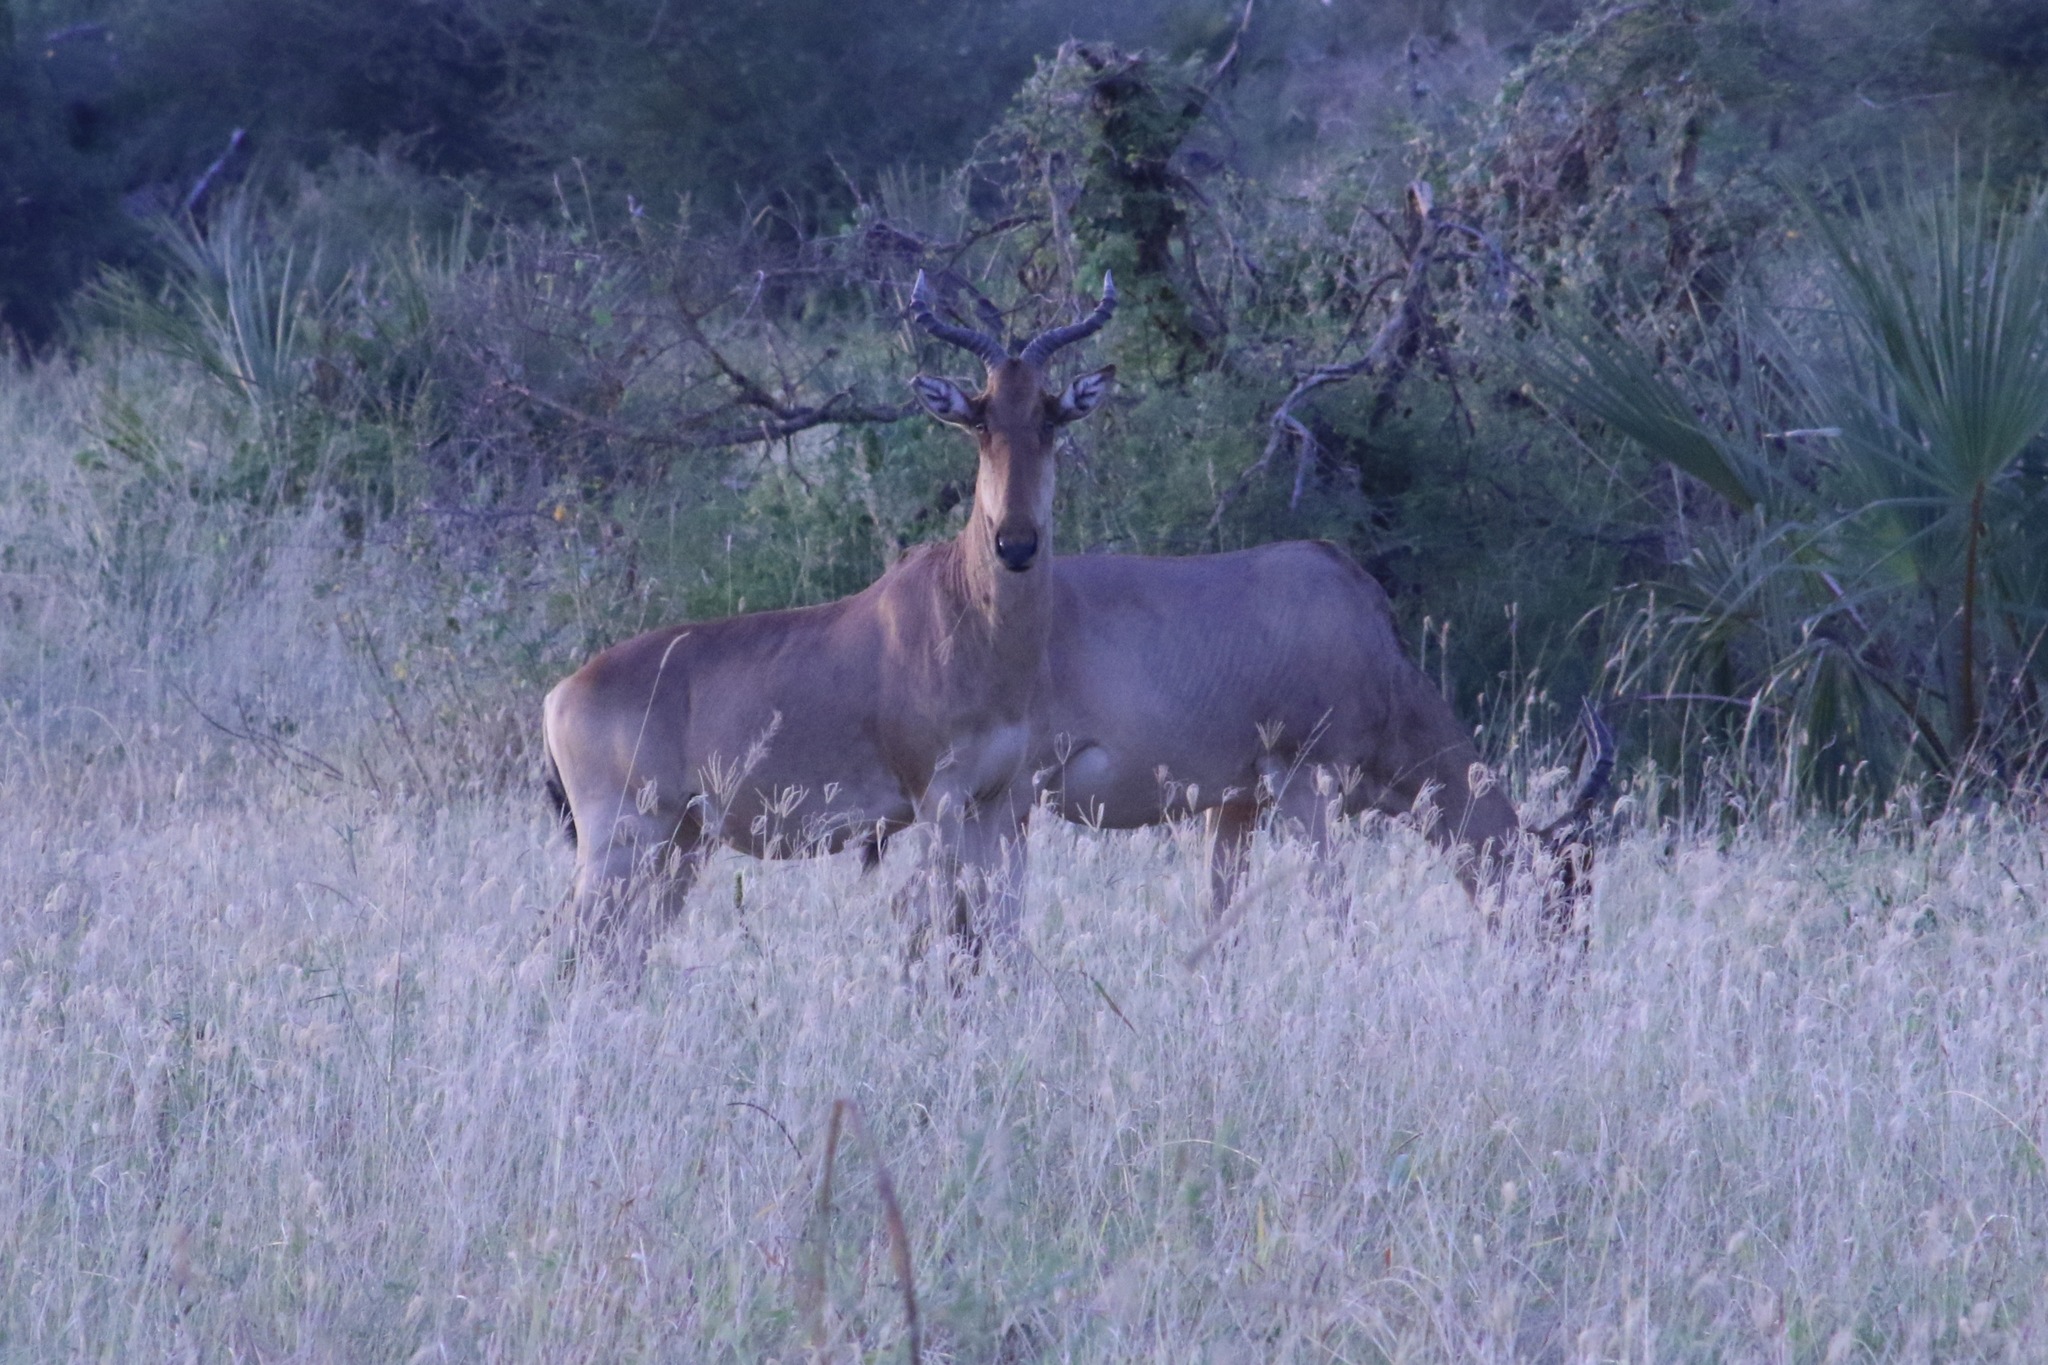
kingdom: Animalia
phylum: Chordata
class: Mammalia
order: Artiodactyla
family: Bovidae
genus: Alcelaphus
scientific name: Alcelaphus buselaphus
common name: Hartebeest
